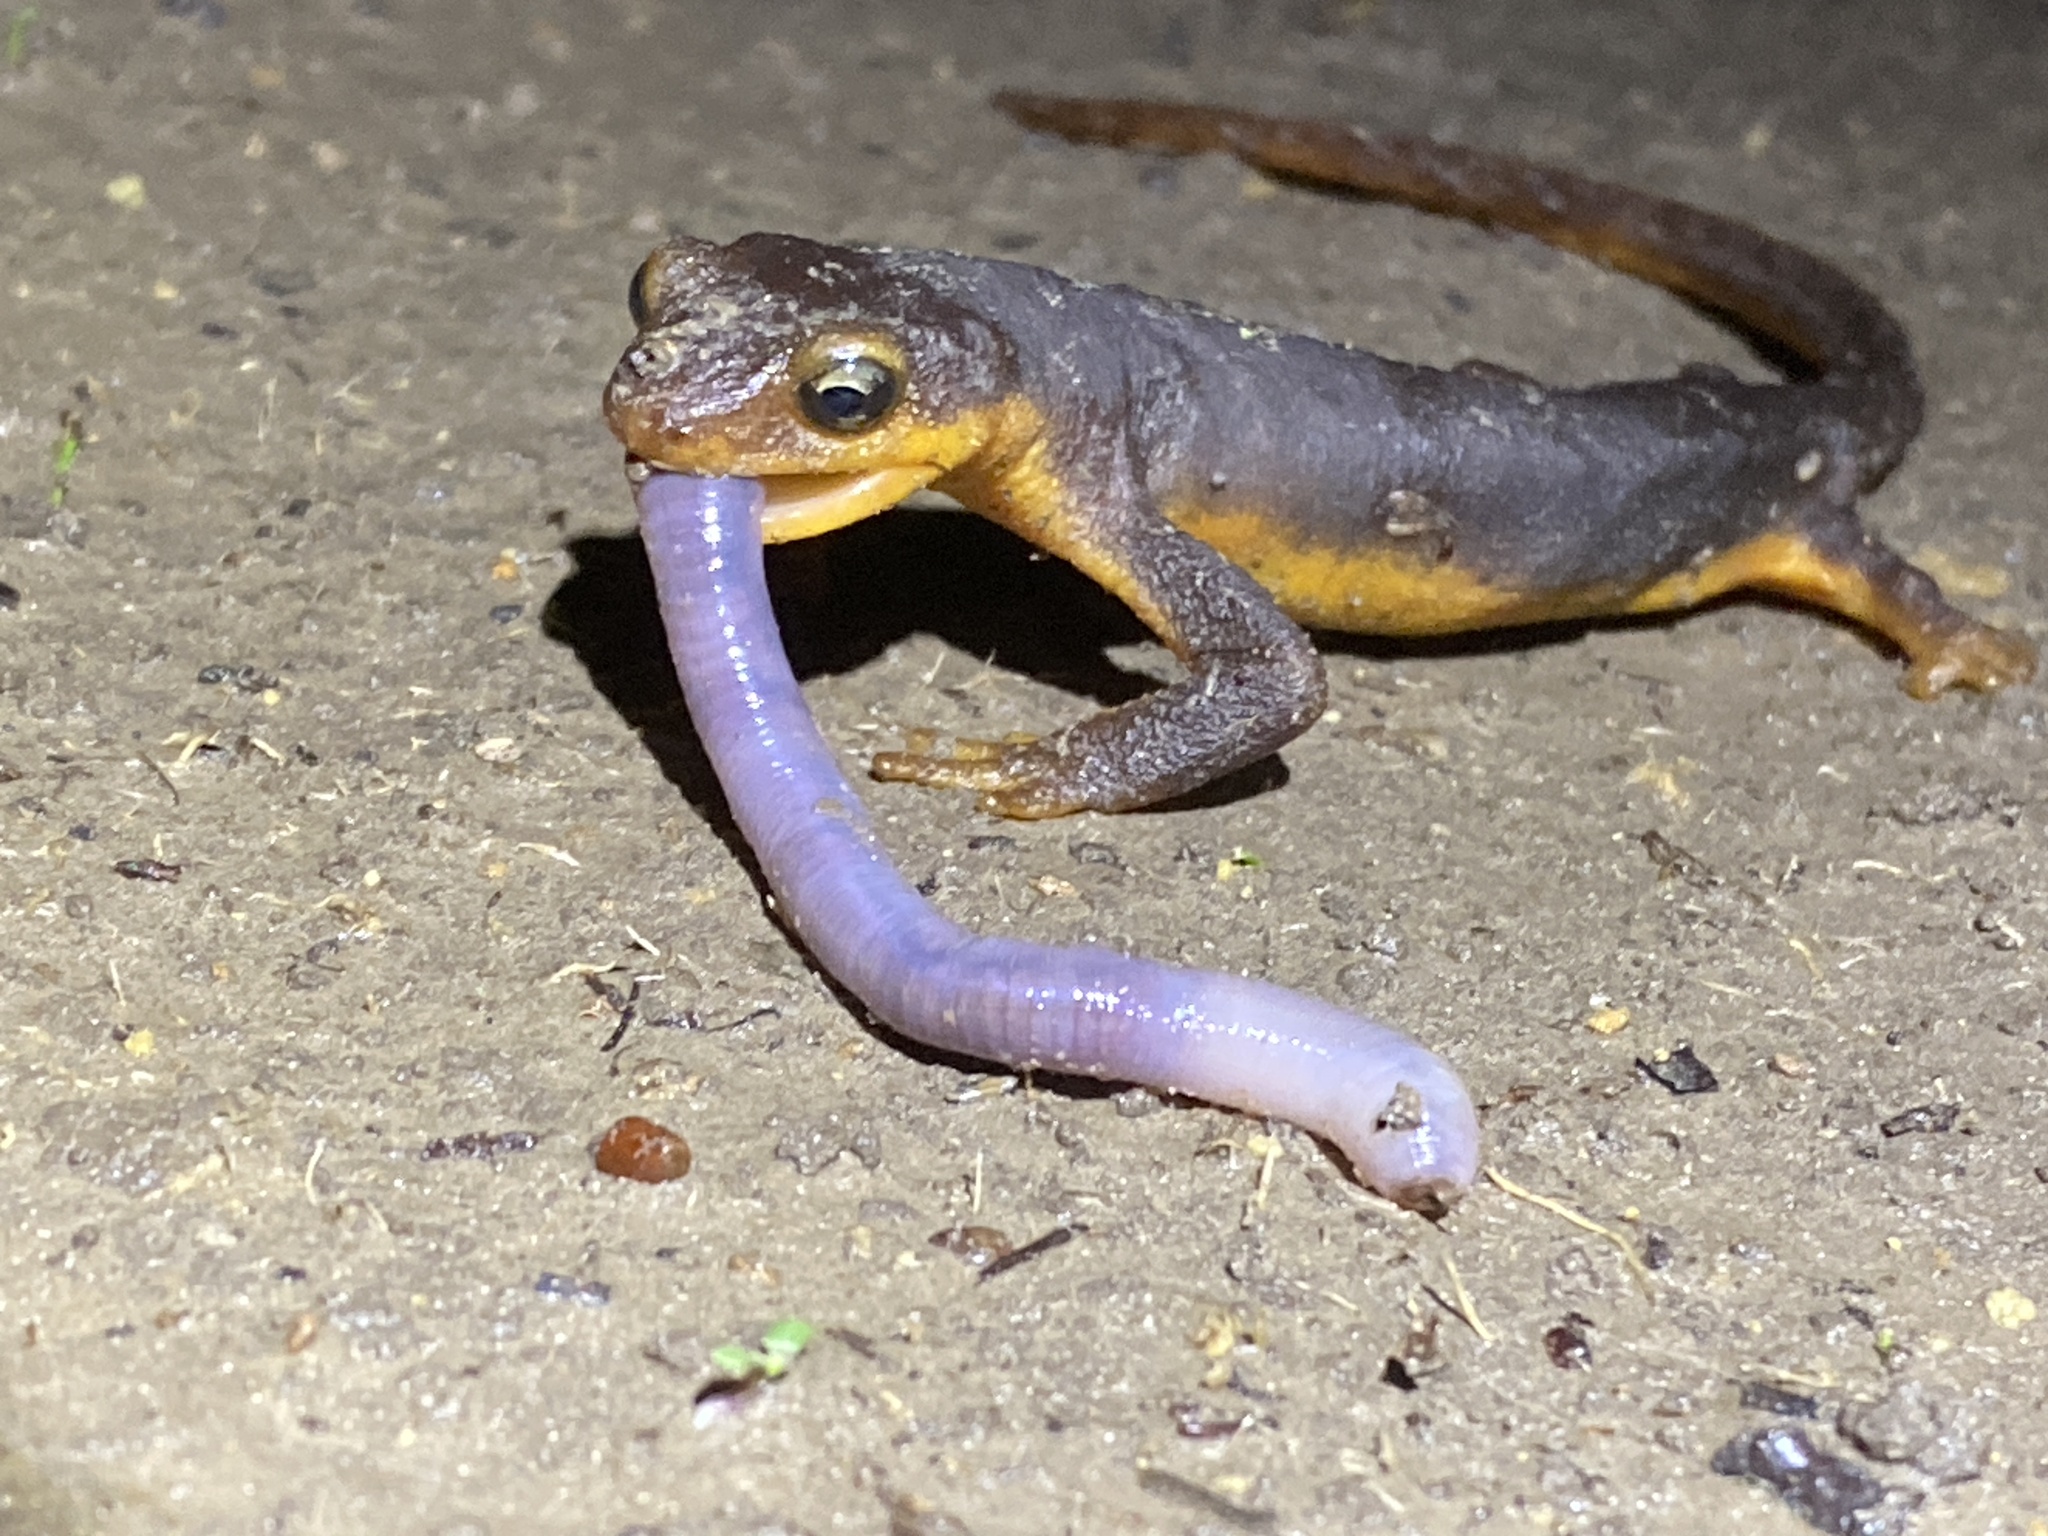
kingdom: Animalia
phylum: Chordata
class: Amphibia
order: Caudata
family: Salamandridae
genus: Taricha
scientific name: Taricha torosa
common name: California newt
